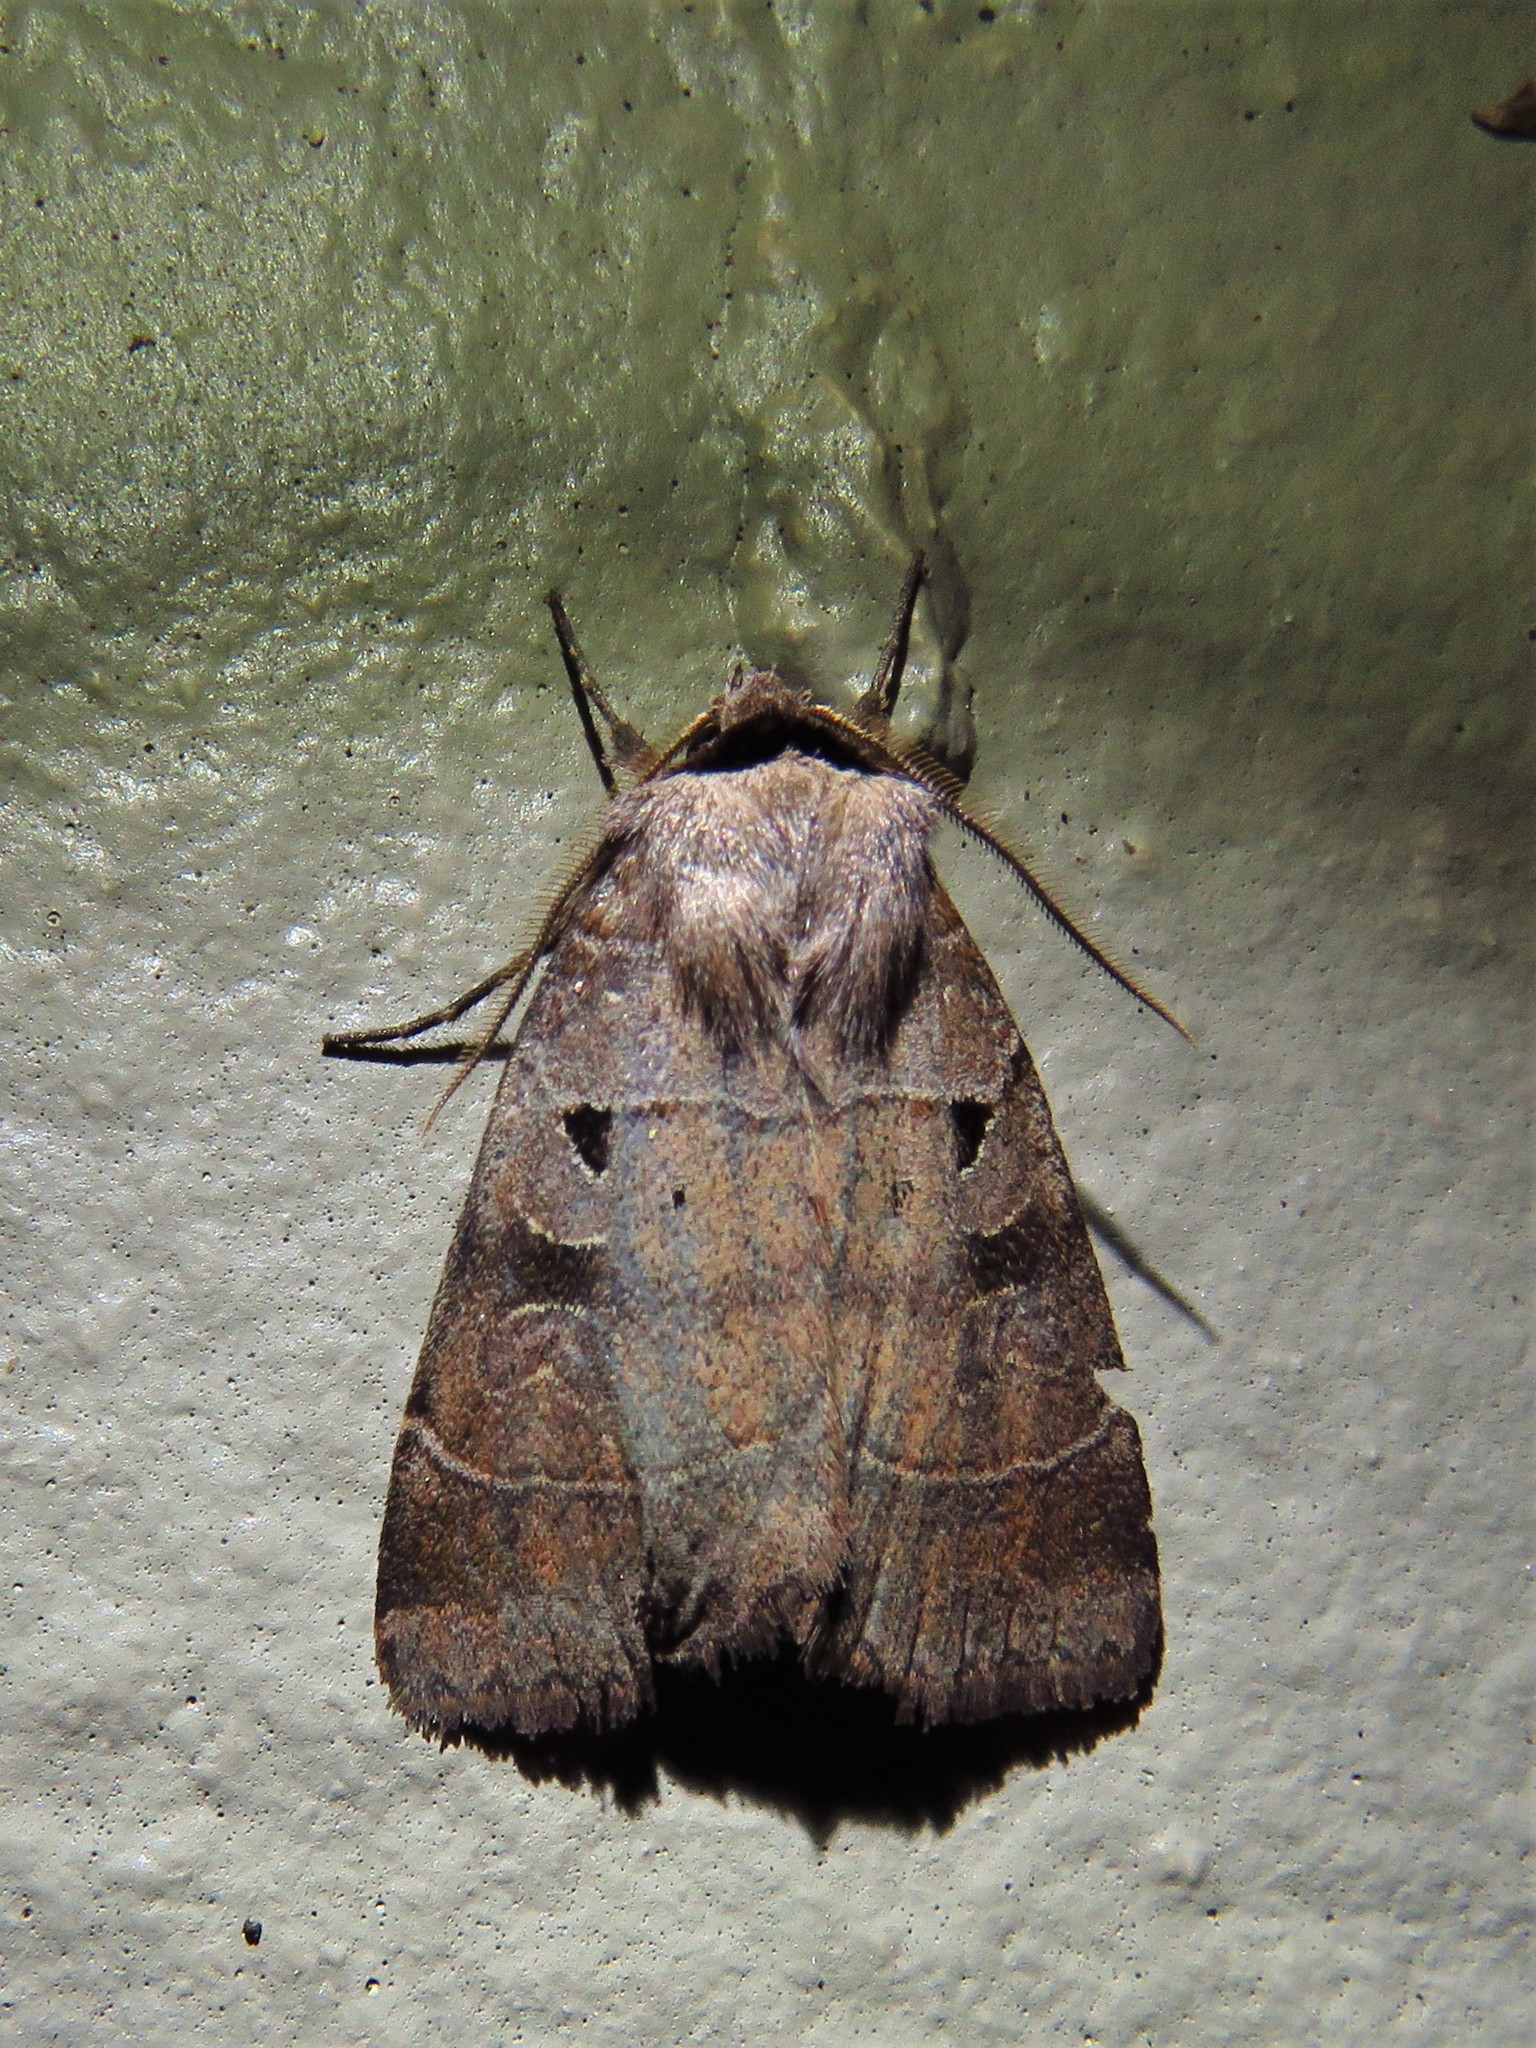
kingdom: Animalia
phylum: Arthropoda
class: Insecta
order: Lepidoptera
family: Noctuidae
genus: Agnorisma
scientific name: Agnorisma badinodis
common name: Pale-banded dart
